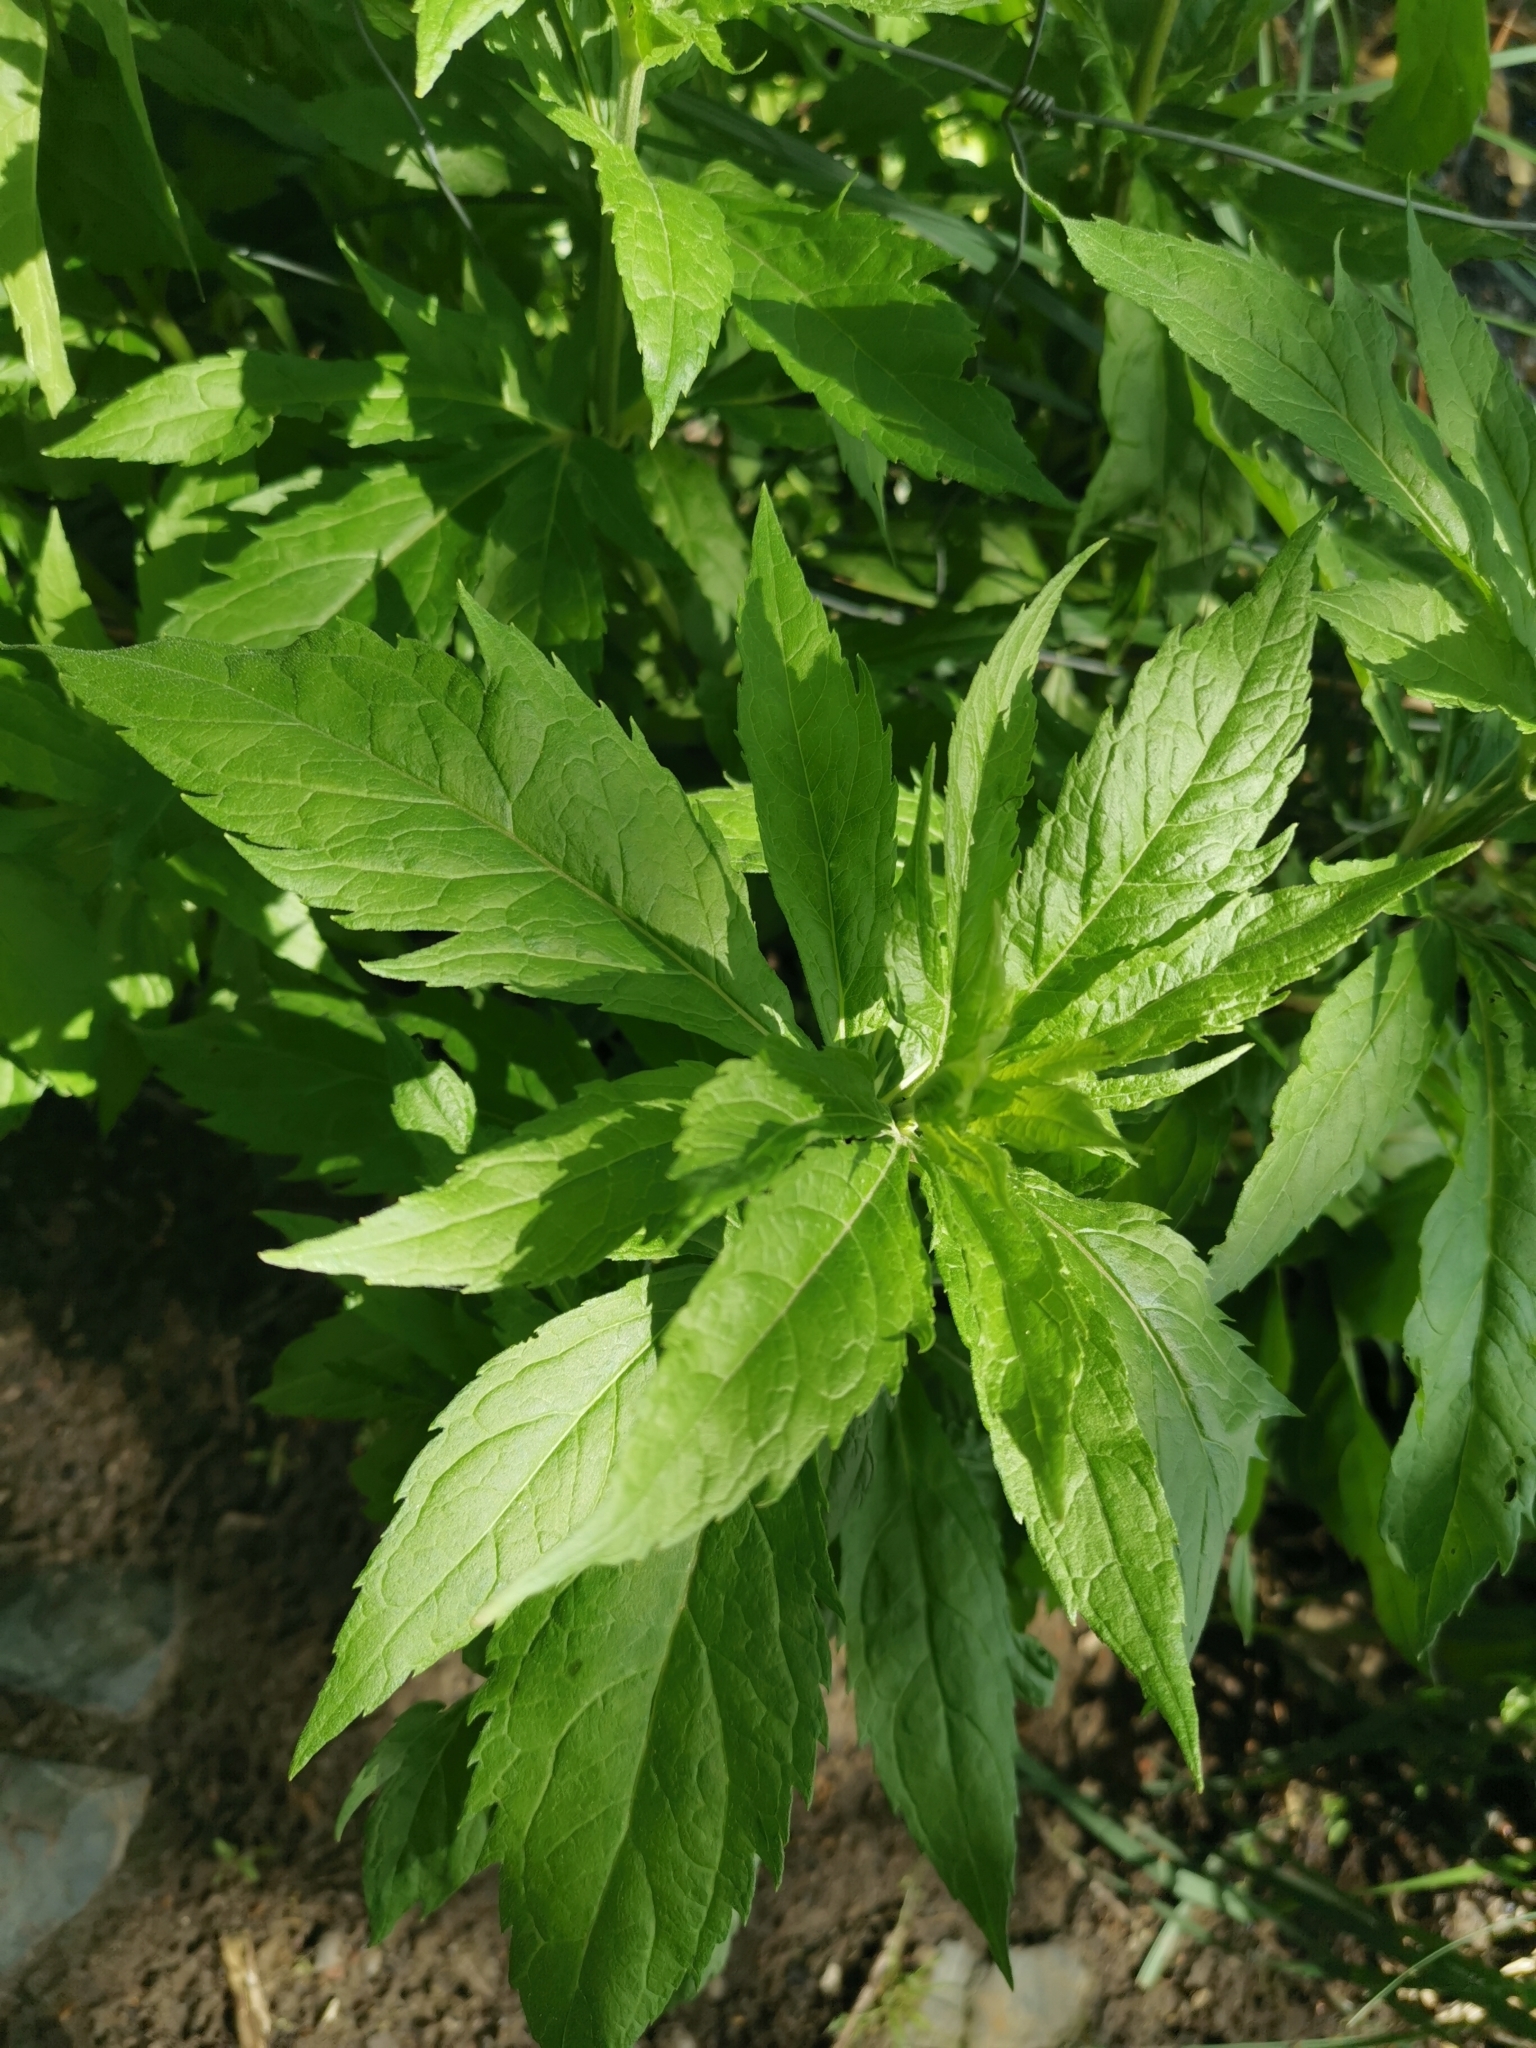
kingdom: Plantae
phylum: Tracheophyta
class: Magnoliopsida
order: Asterales
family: Asteraceae
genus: Eupatorium
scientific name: Eupatorium cannabinum
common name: Hemp-agrimony
